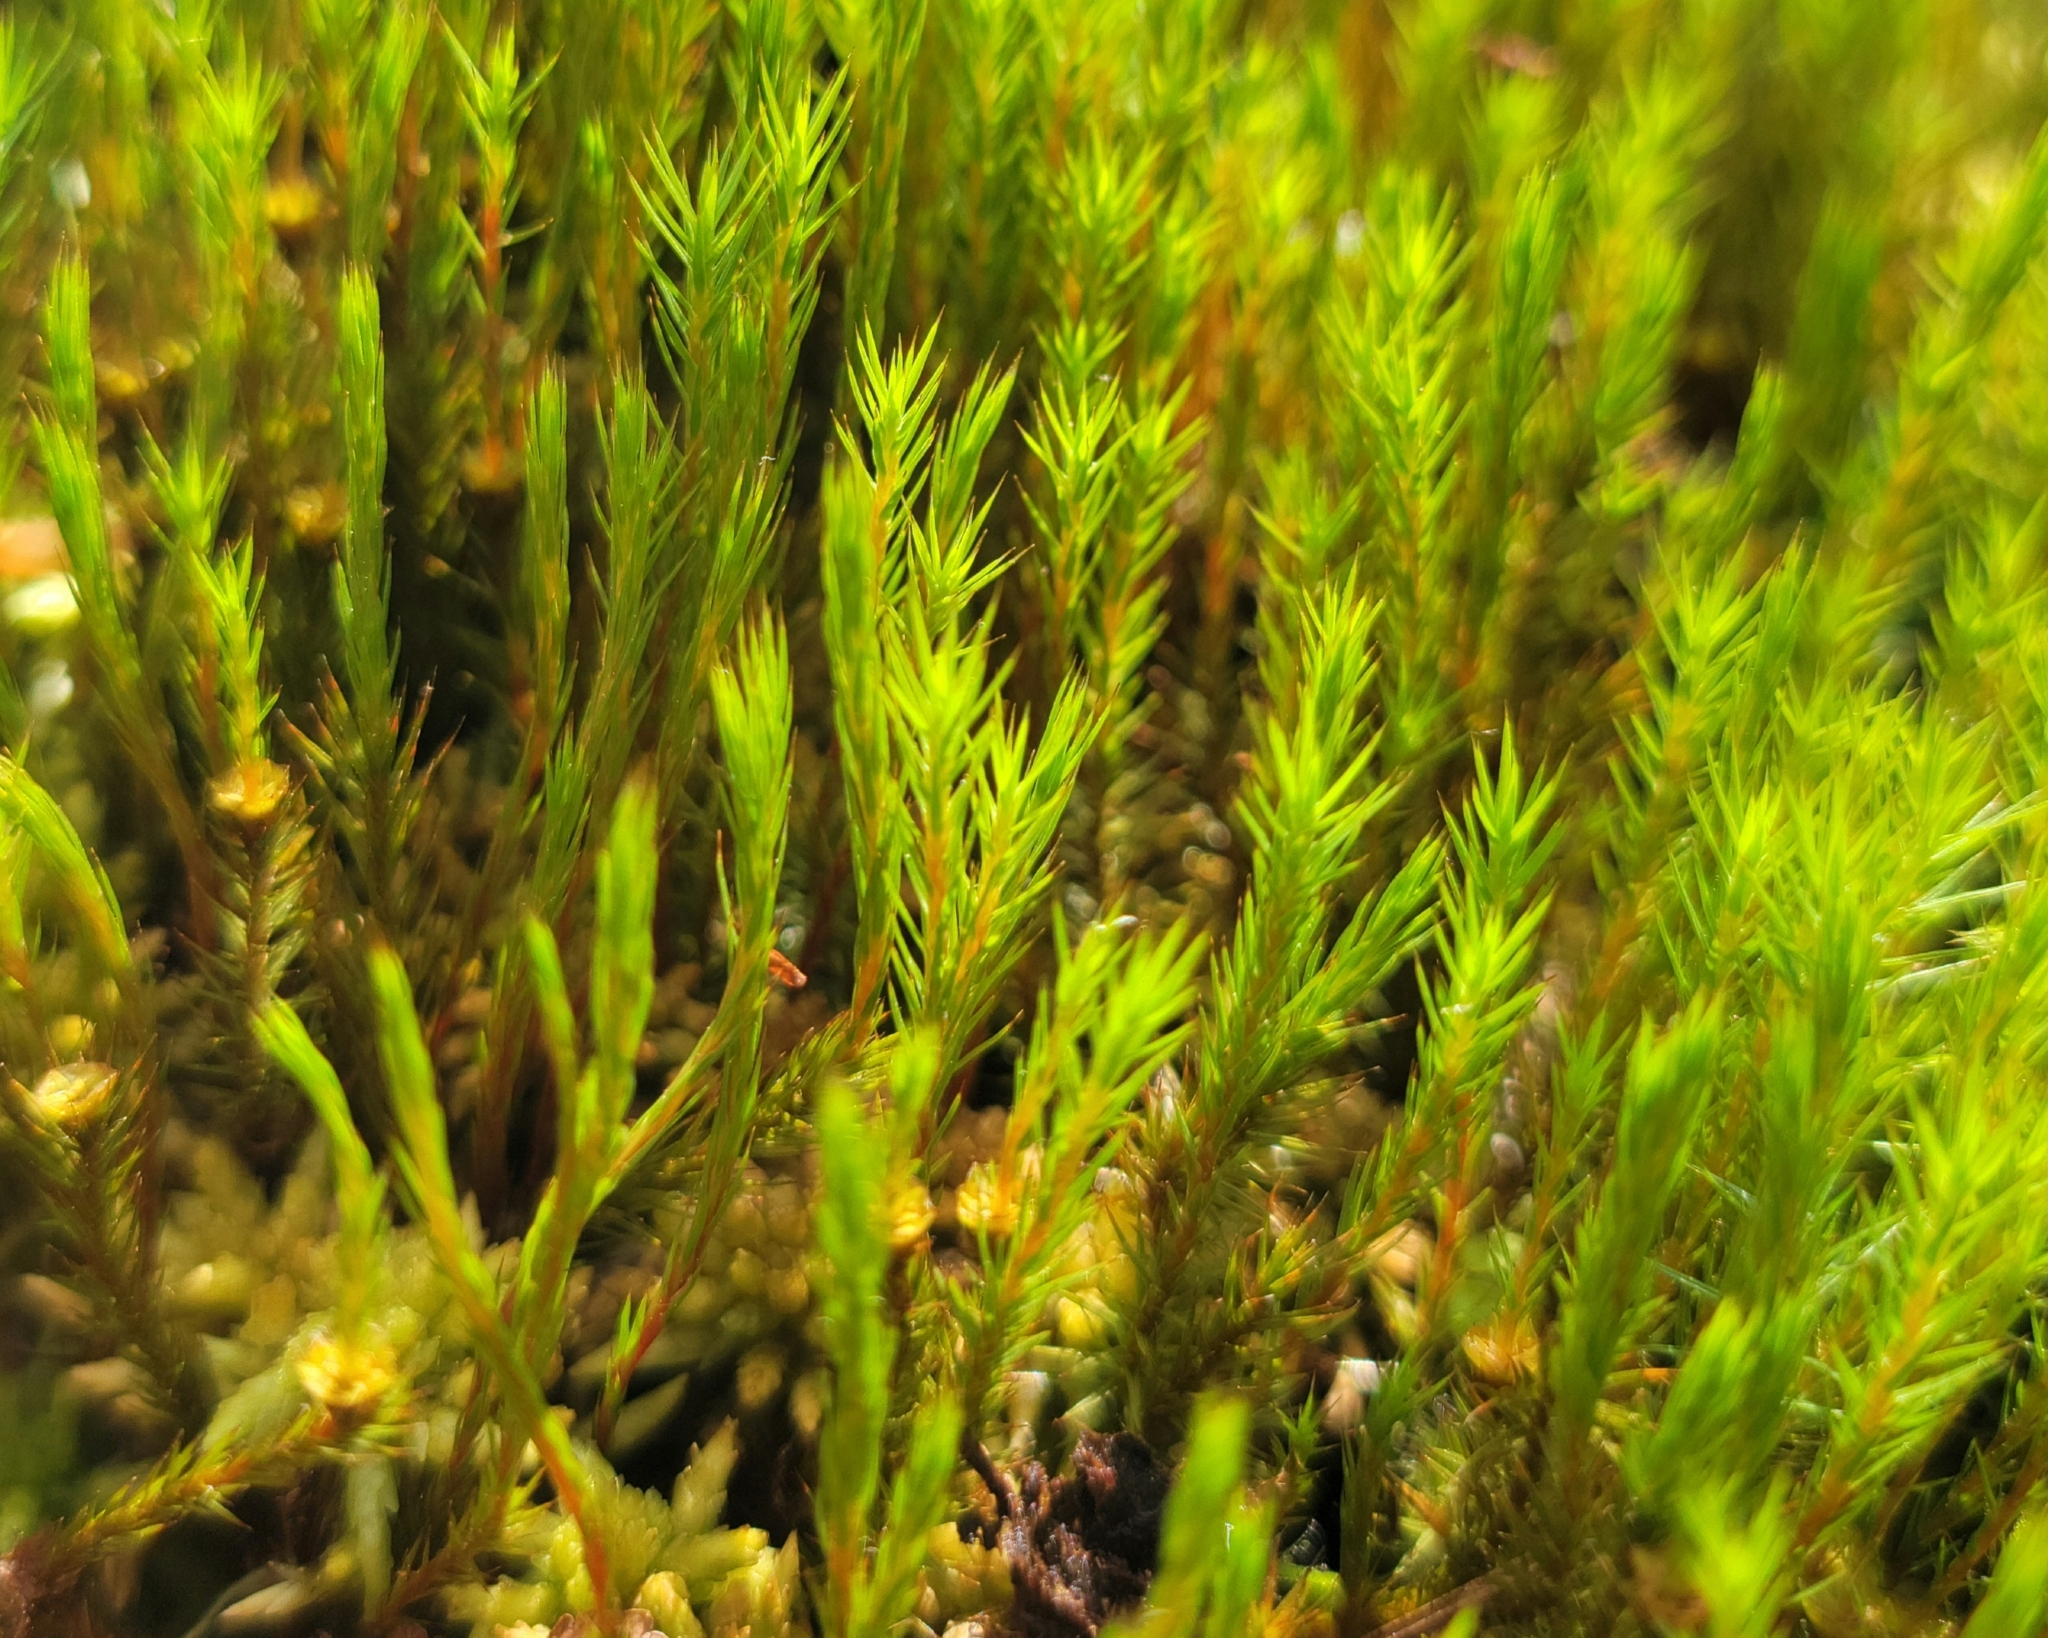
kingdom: Plantae
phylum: Bryophyta
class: Polytrichopsida
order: Polytrichales
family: Polytrichaceae
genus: Polytrichum
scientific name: Polytrichum strictum
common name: Bog haircap moss
